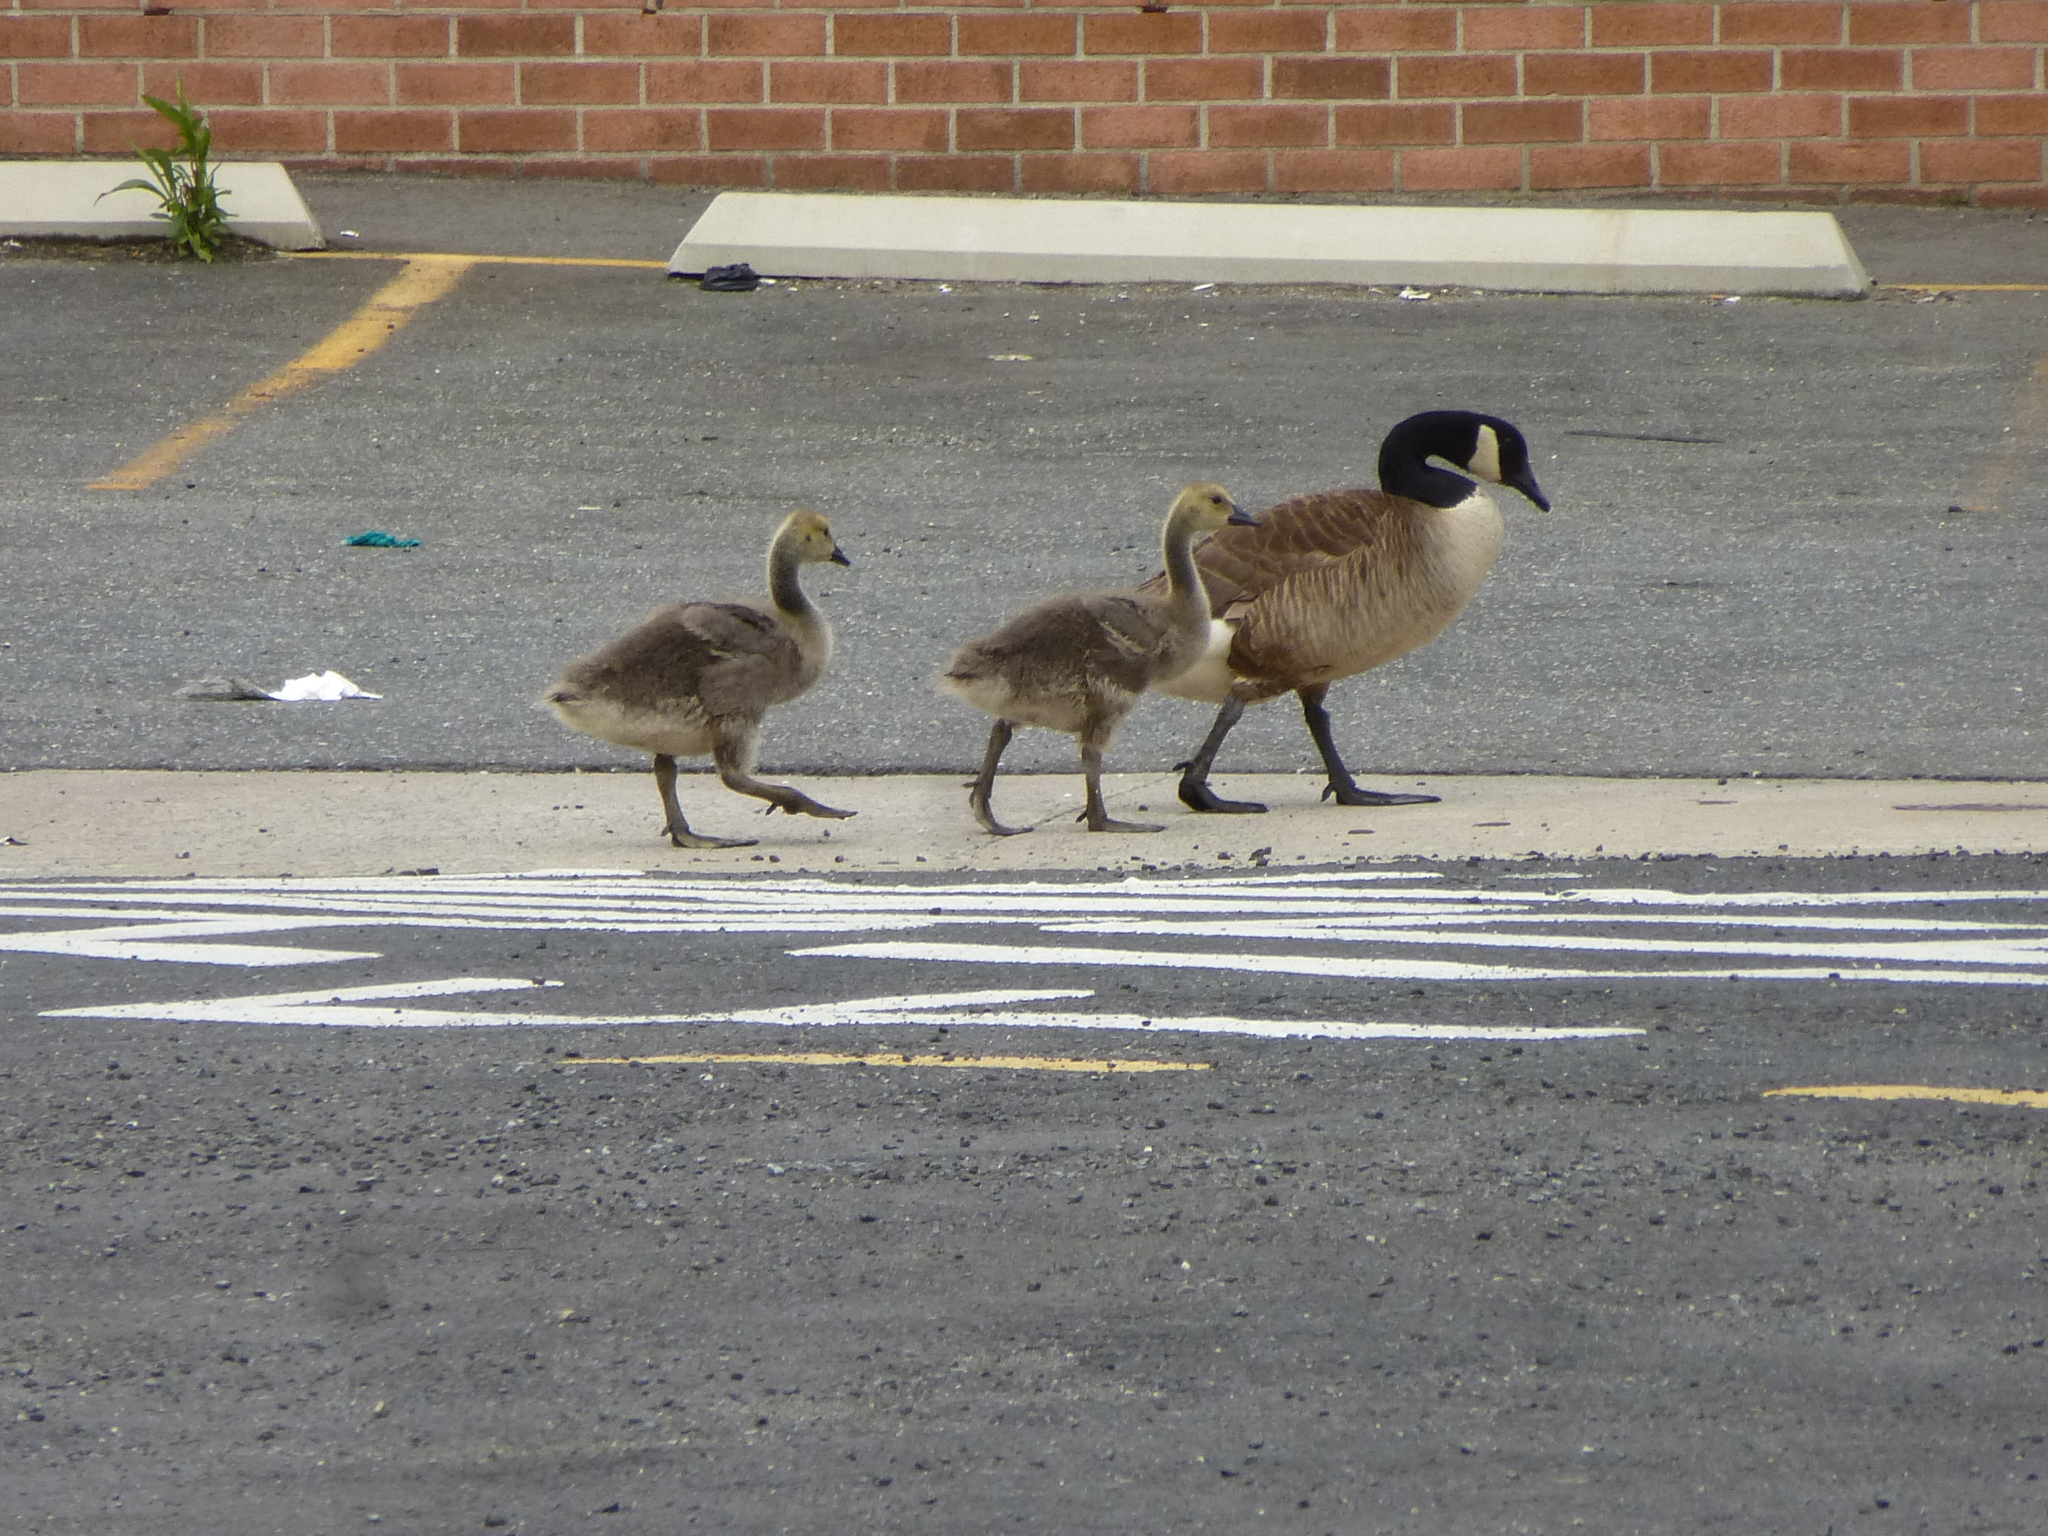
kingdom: Animalia
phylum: Chordata
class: Aves
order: Anseriformes
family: Anatidae
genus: Branta
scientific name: Branta canadensis
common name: Canada goose
